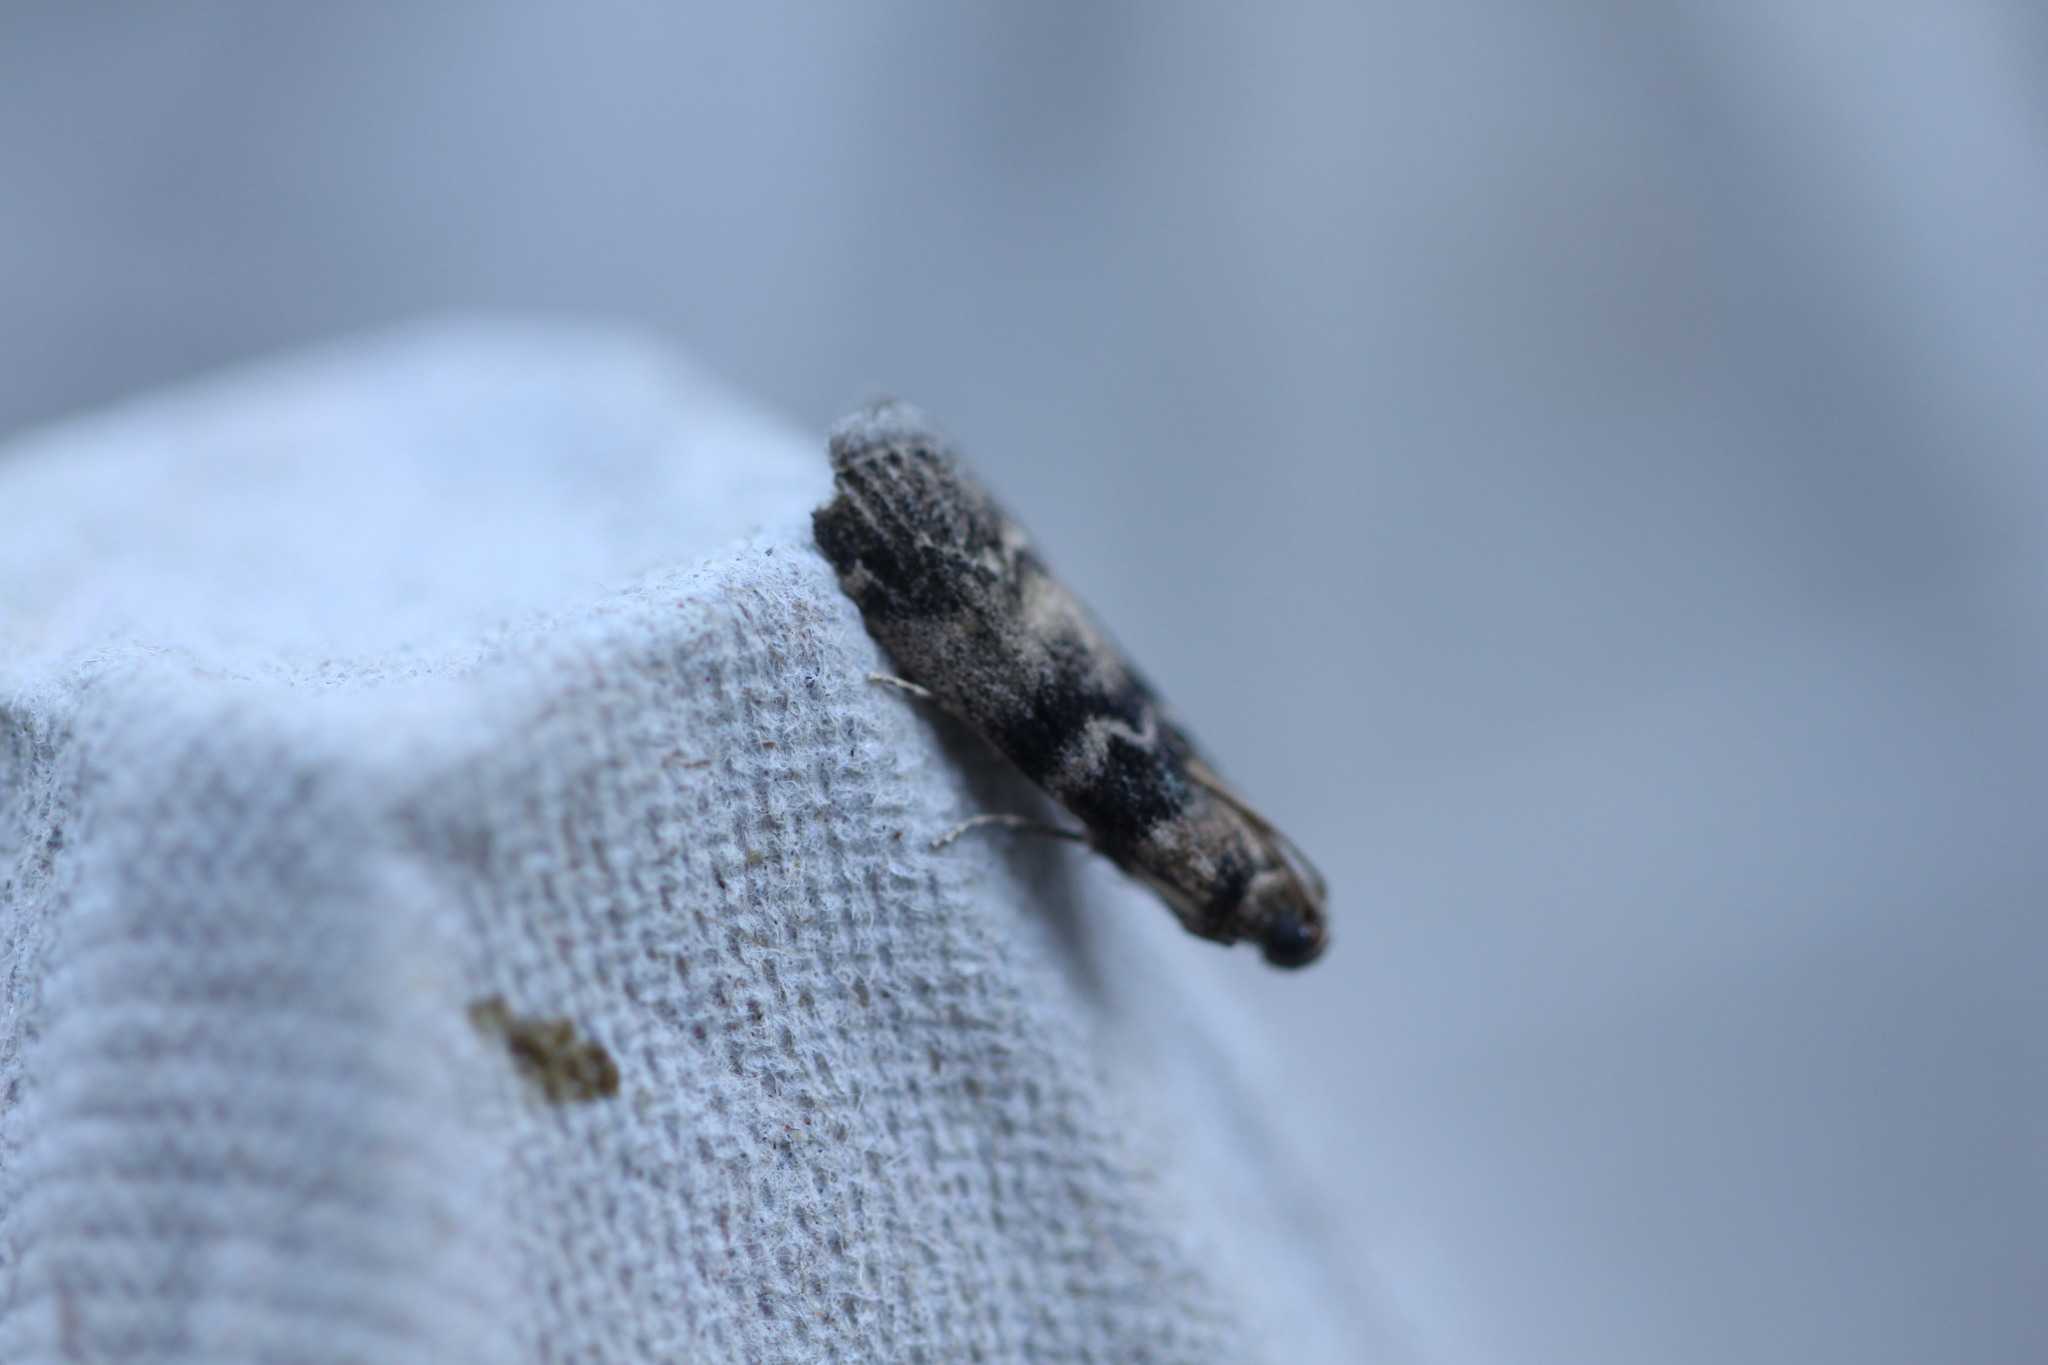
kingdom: Animalia
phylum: Arthropoda
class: Insecta
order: Lepidoptera
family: Pyralidae
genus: Euzophera
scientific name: Euzophera pinguis
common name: Ash-bark knot-horn
